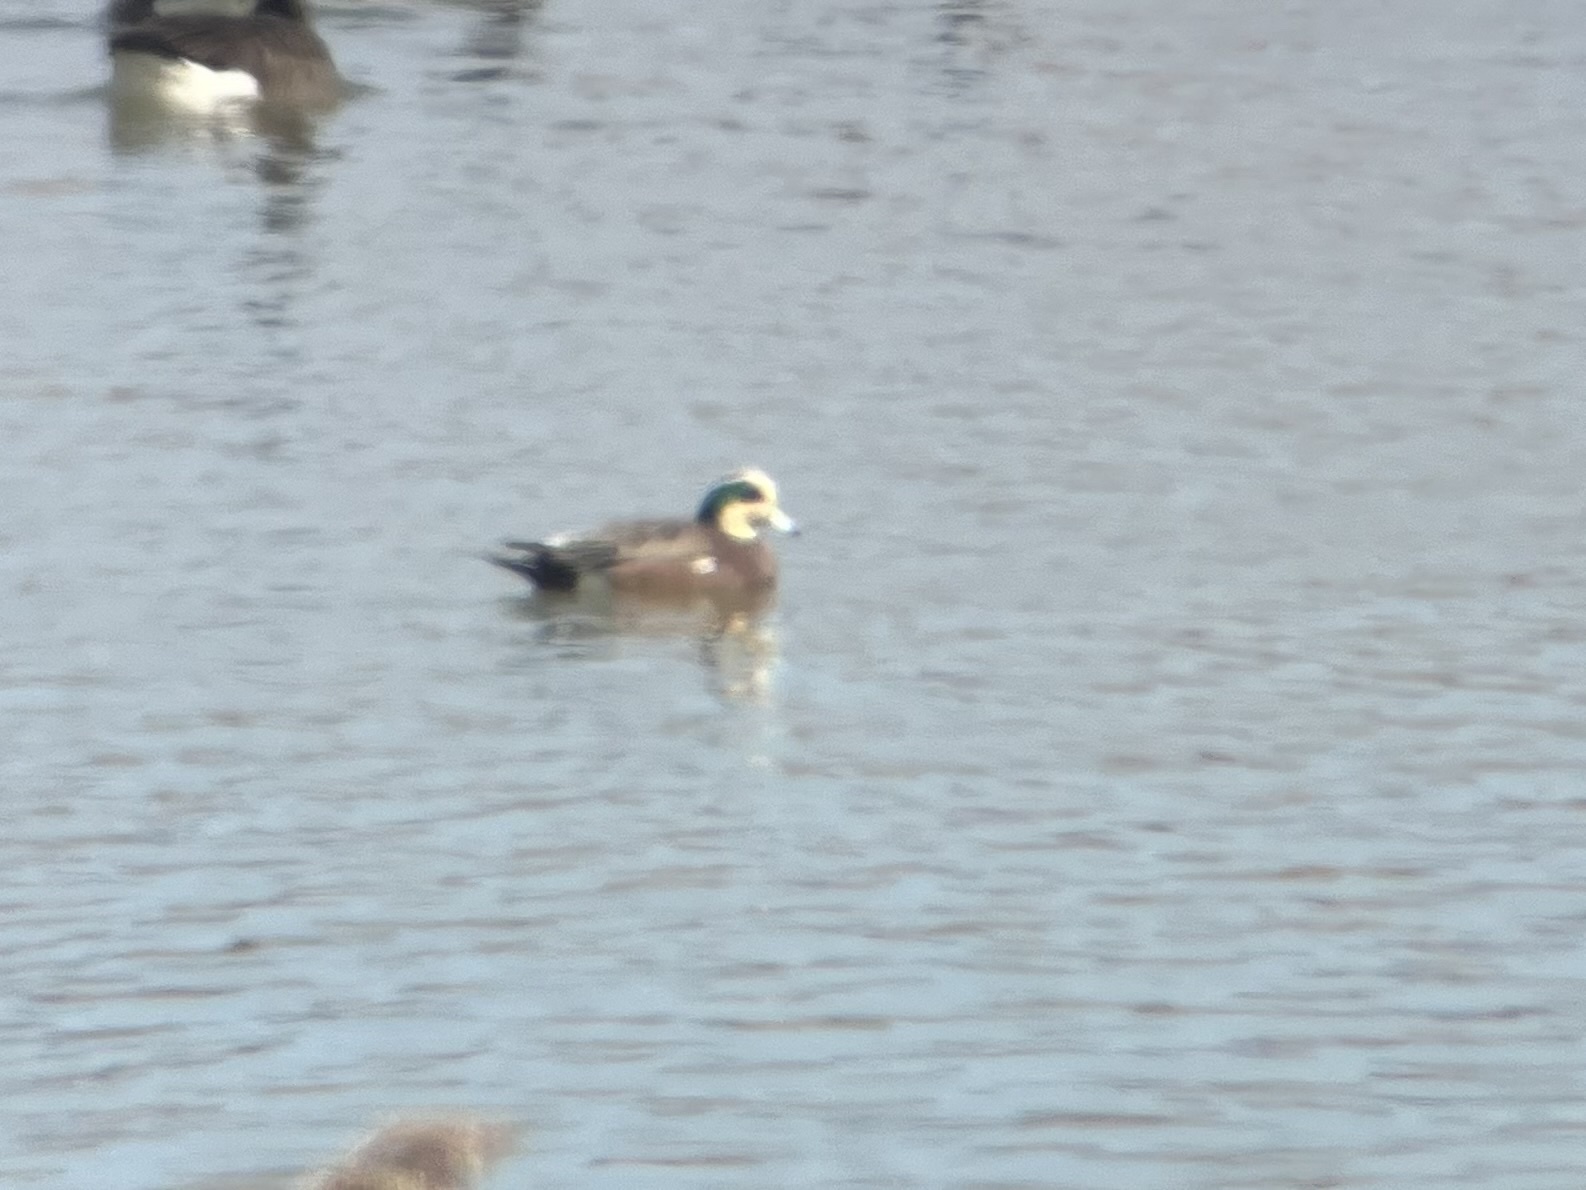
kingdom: Animalia
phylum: Chordata
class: Aves
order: Anseriformes
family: Anatidae
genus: Mareca
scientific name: Mareca americana
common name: American wigeon
